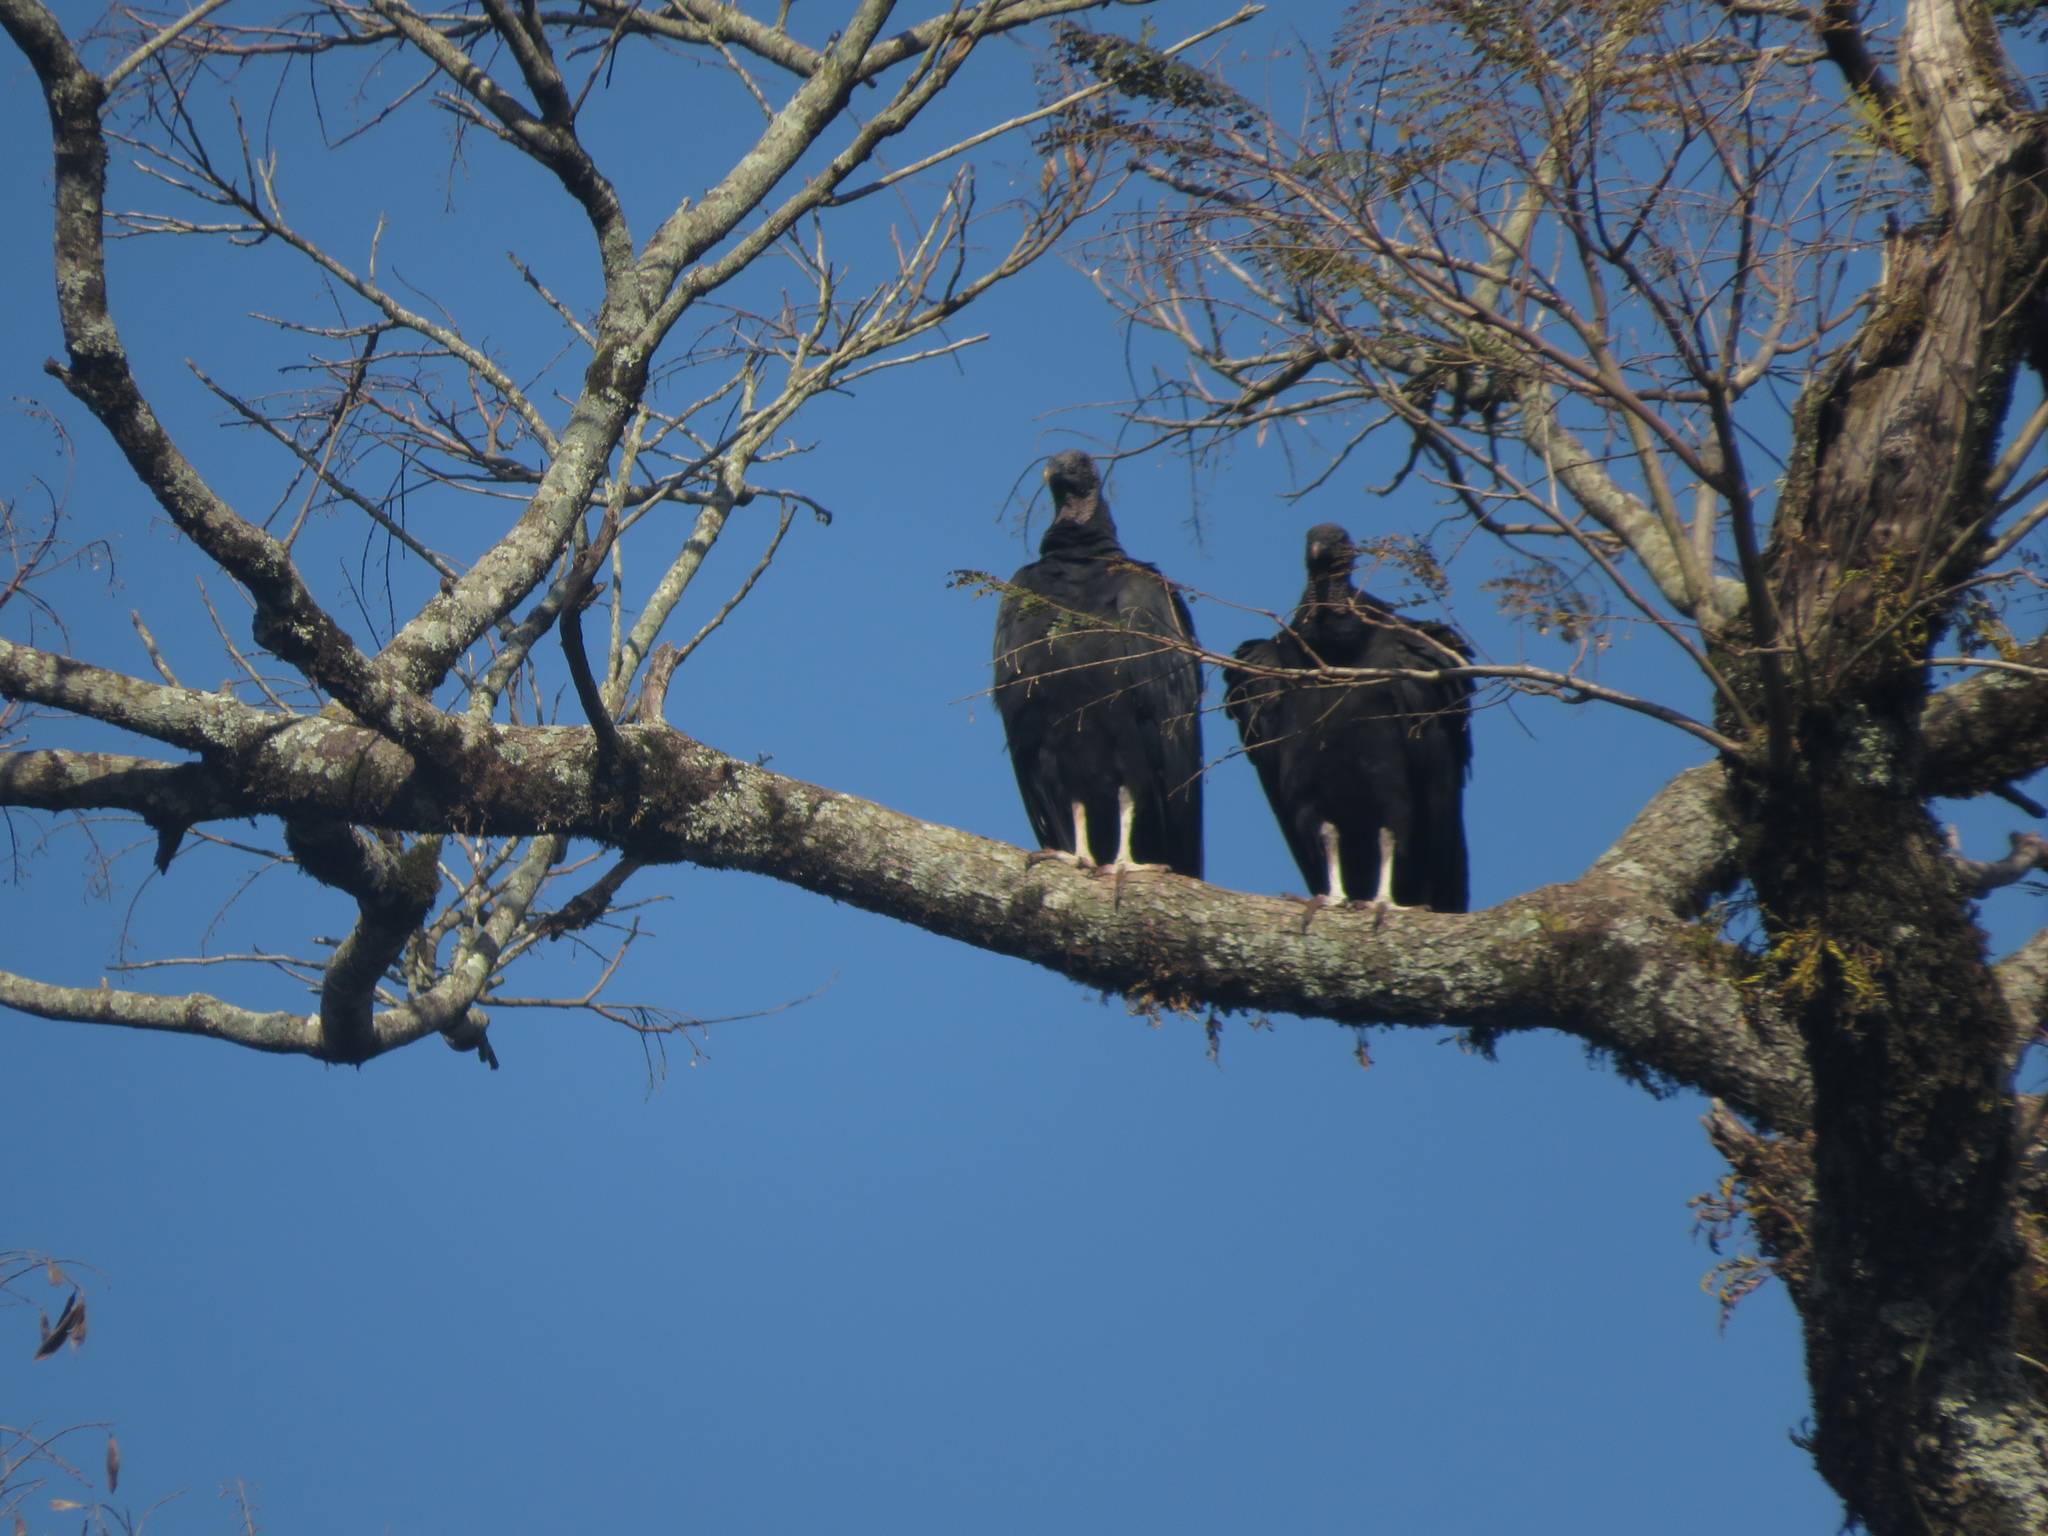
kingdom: Animalia
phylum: Chordata
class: Aves
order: Accipitriformes
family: Cathartidae
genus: Coragyps
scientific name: Coragyps atratus
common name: Black vulture
